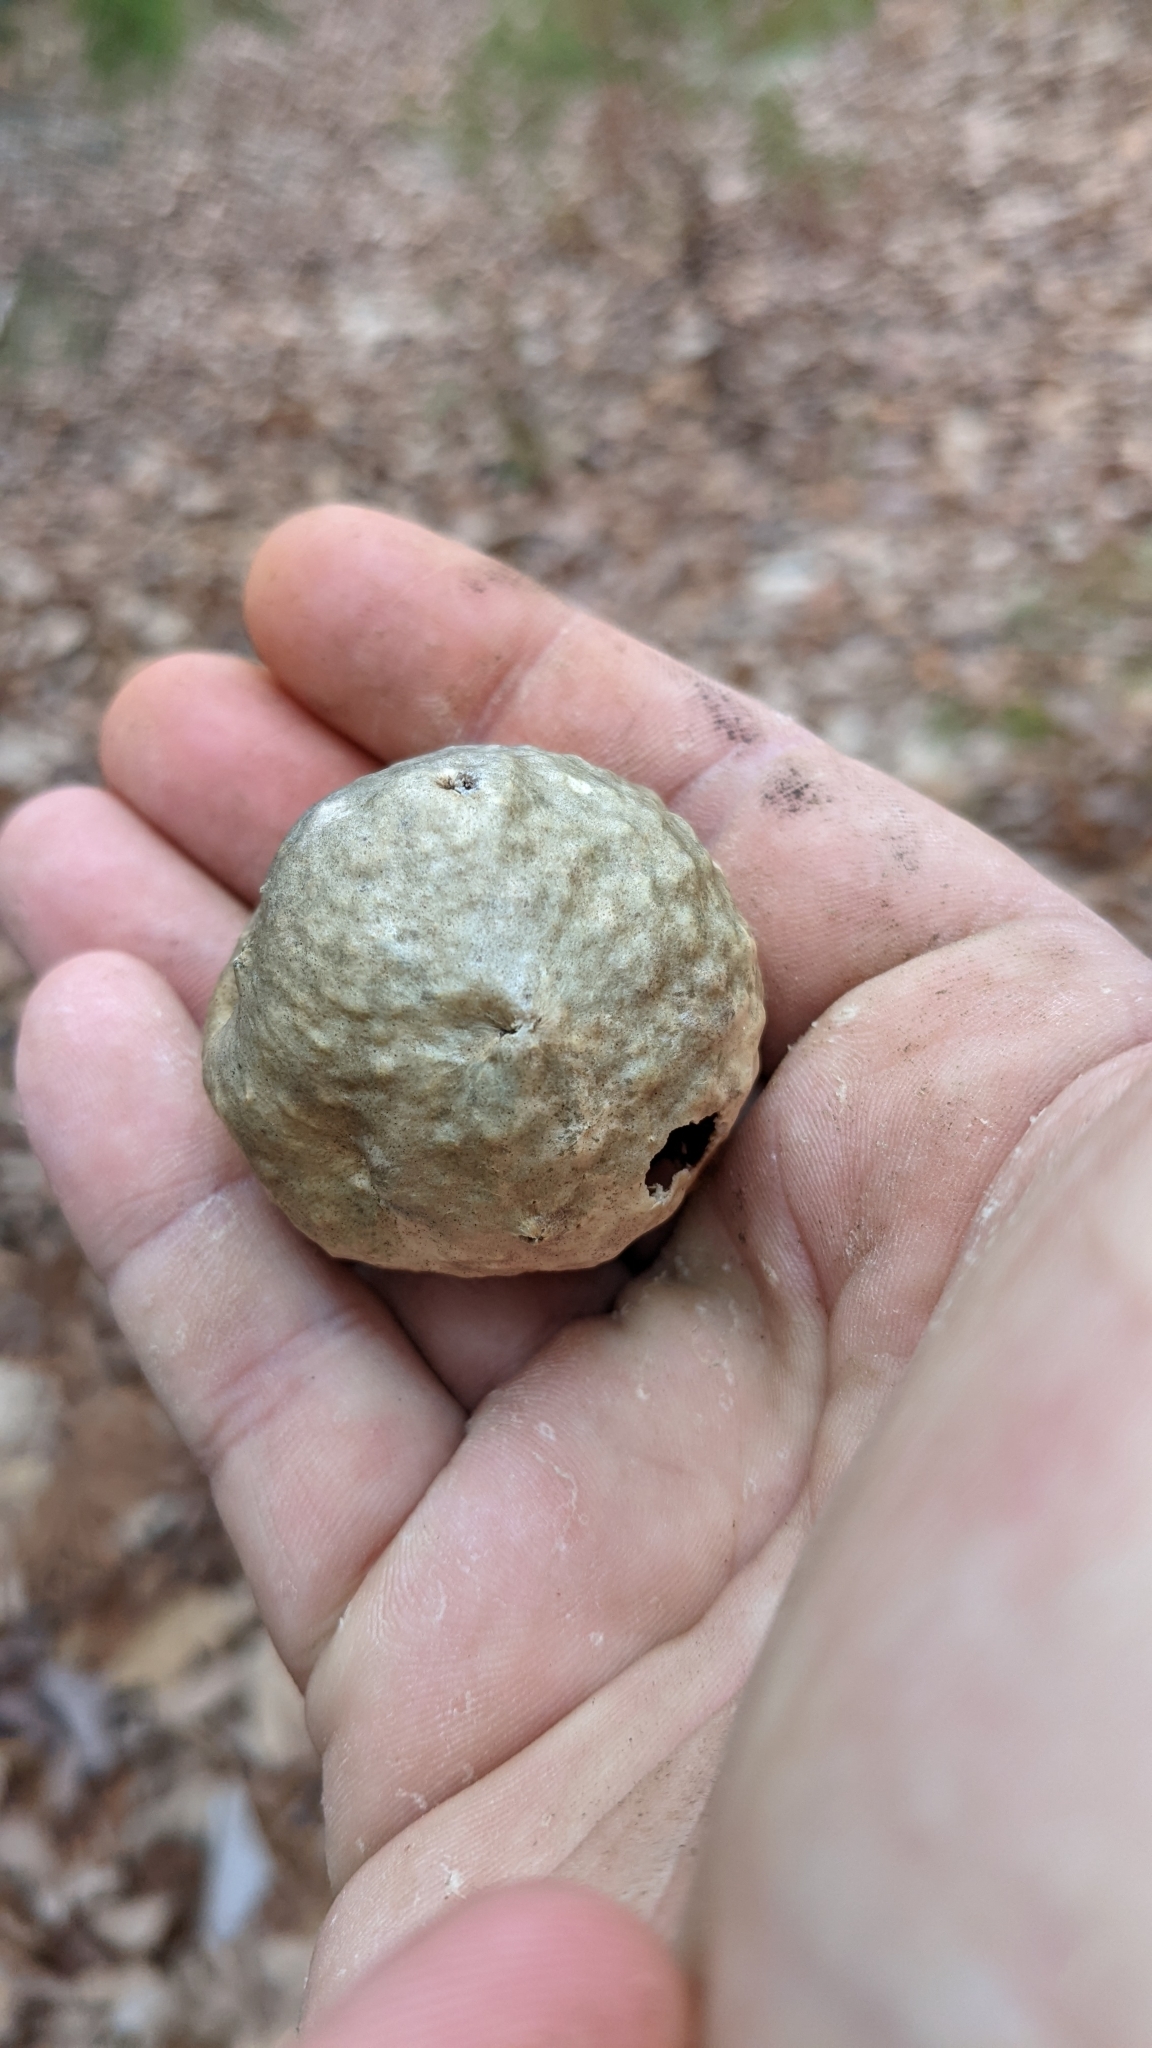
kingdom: Animalia
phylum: Arthropoda
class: Insecta
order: Hymenoptera
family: Cynipidae
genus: Amphibolips
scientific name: Amphibolips
